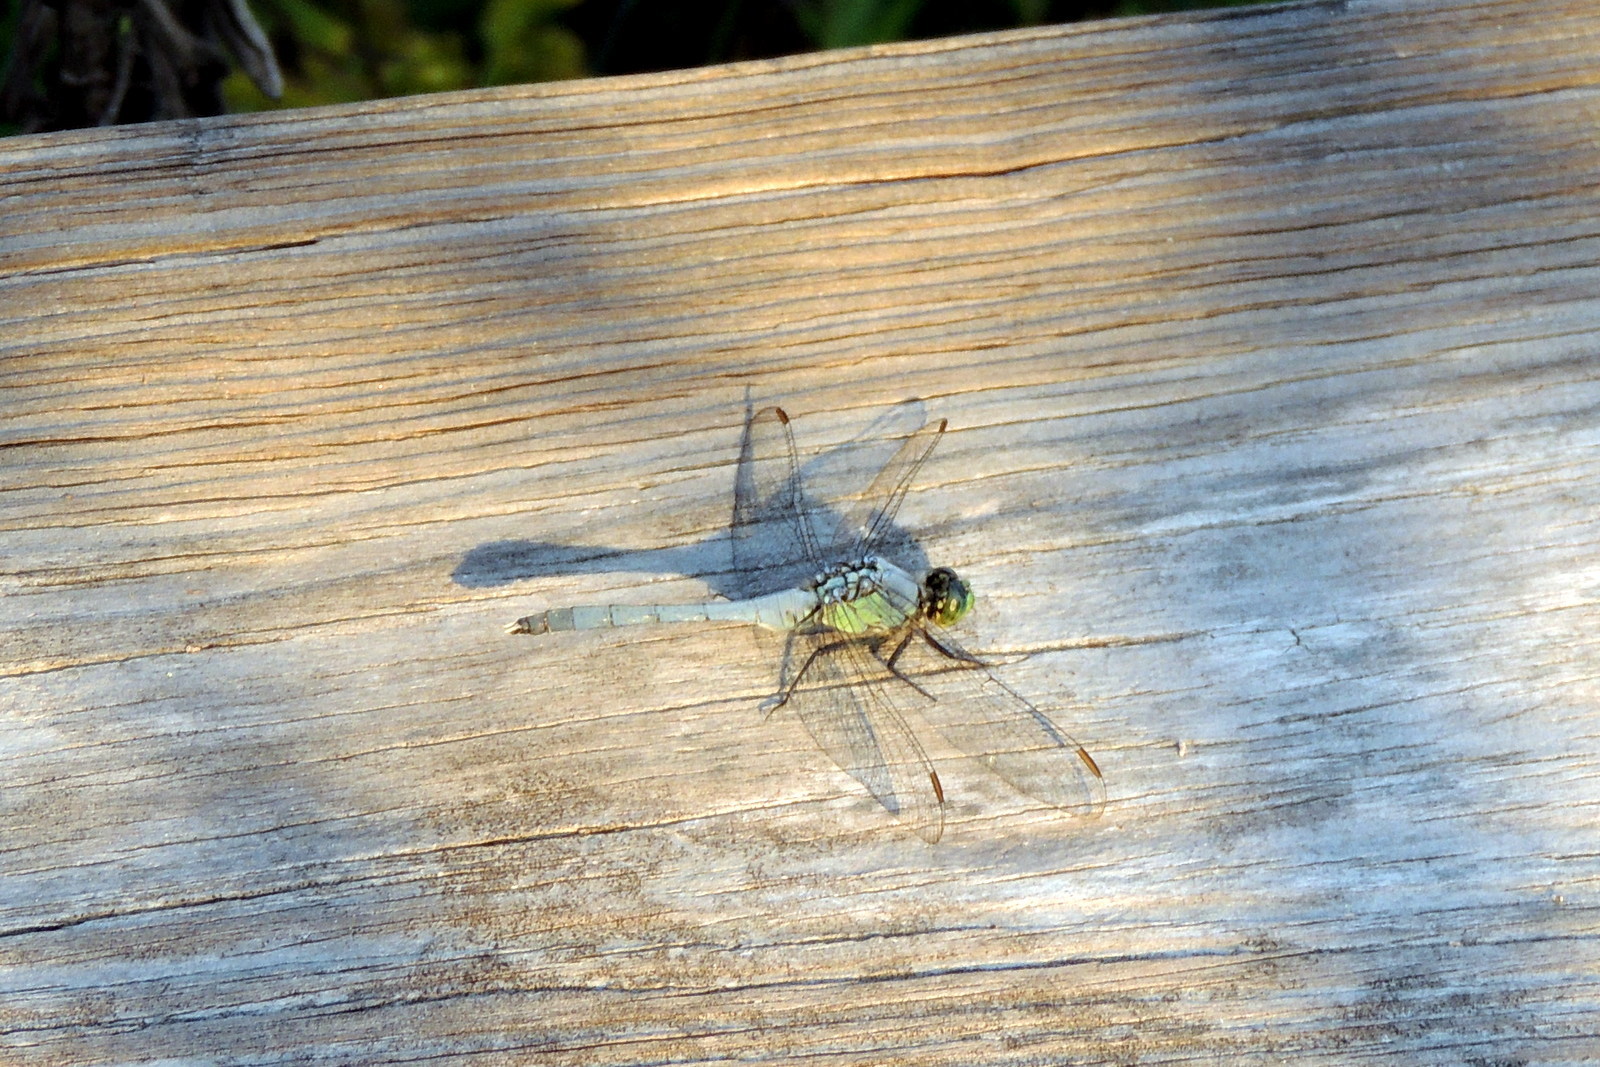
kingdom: Animalia
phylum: Arthropoda
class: Insecta
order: Odonata
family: Libellulidae
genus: Erythemis
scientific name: Erythemis simplicicollis
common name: Eastern pondhawk
